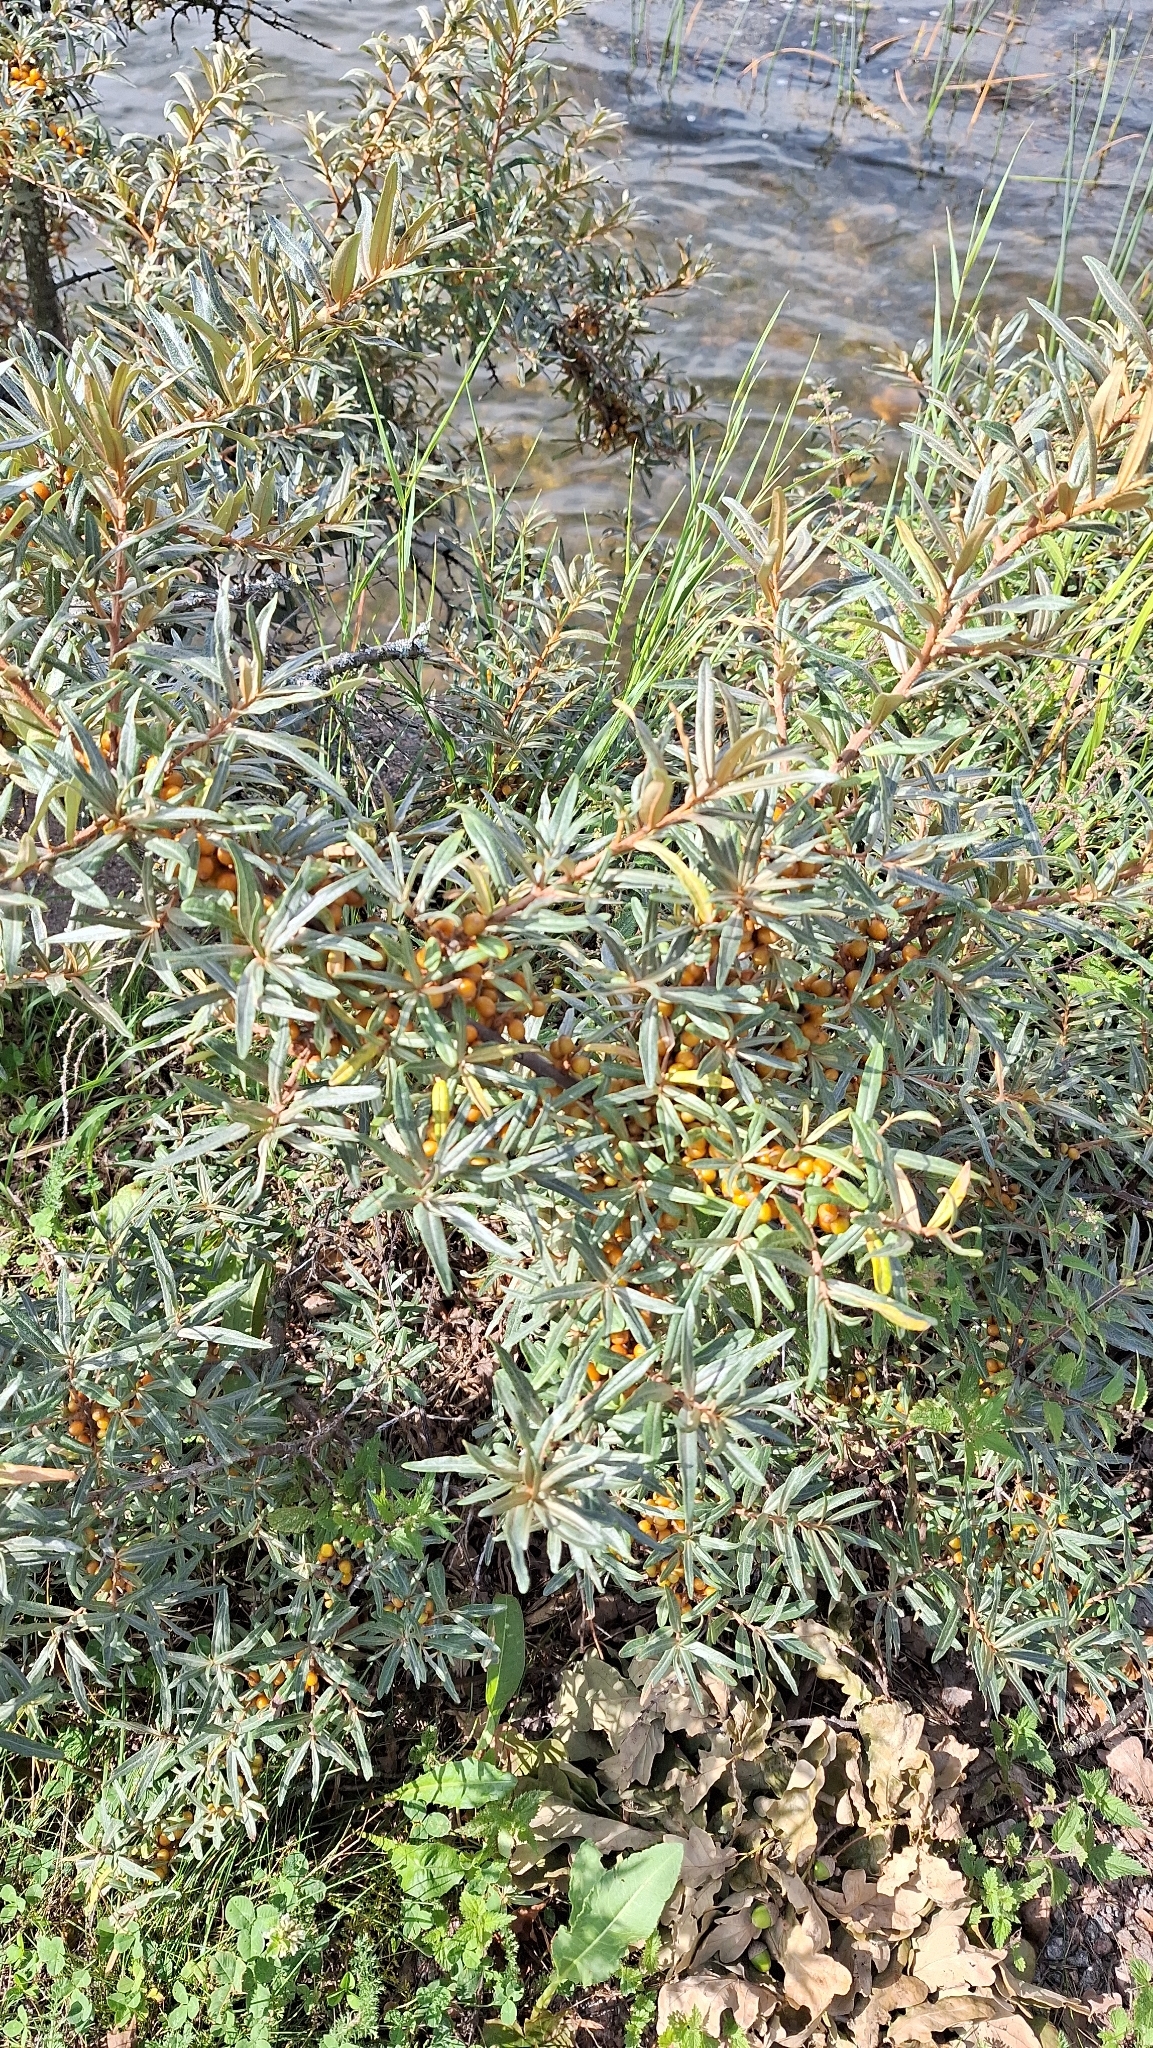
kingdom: Plantae
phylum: Tracheophyta
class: Magnoliopsida
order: Rosales
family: Elaeagnaceae
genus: Hippophae
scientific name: Hippophae rhamnoides
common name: Sea-buckthorn
